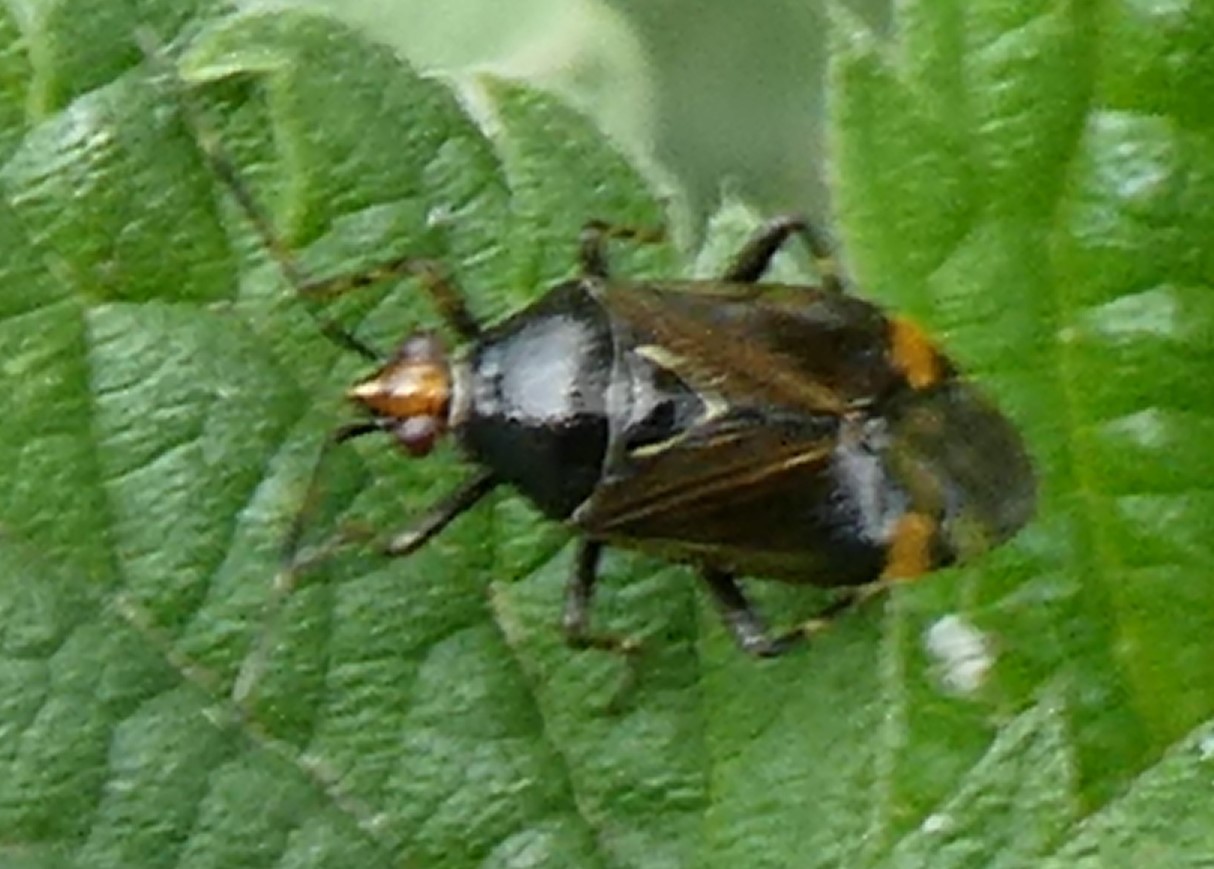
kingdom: Animalia
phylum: Arthropoda
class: Insecta
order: Hemiptera
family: Miridae
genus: Deraeocoris
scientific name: Deraeocoris flavilinea
